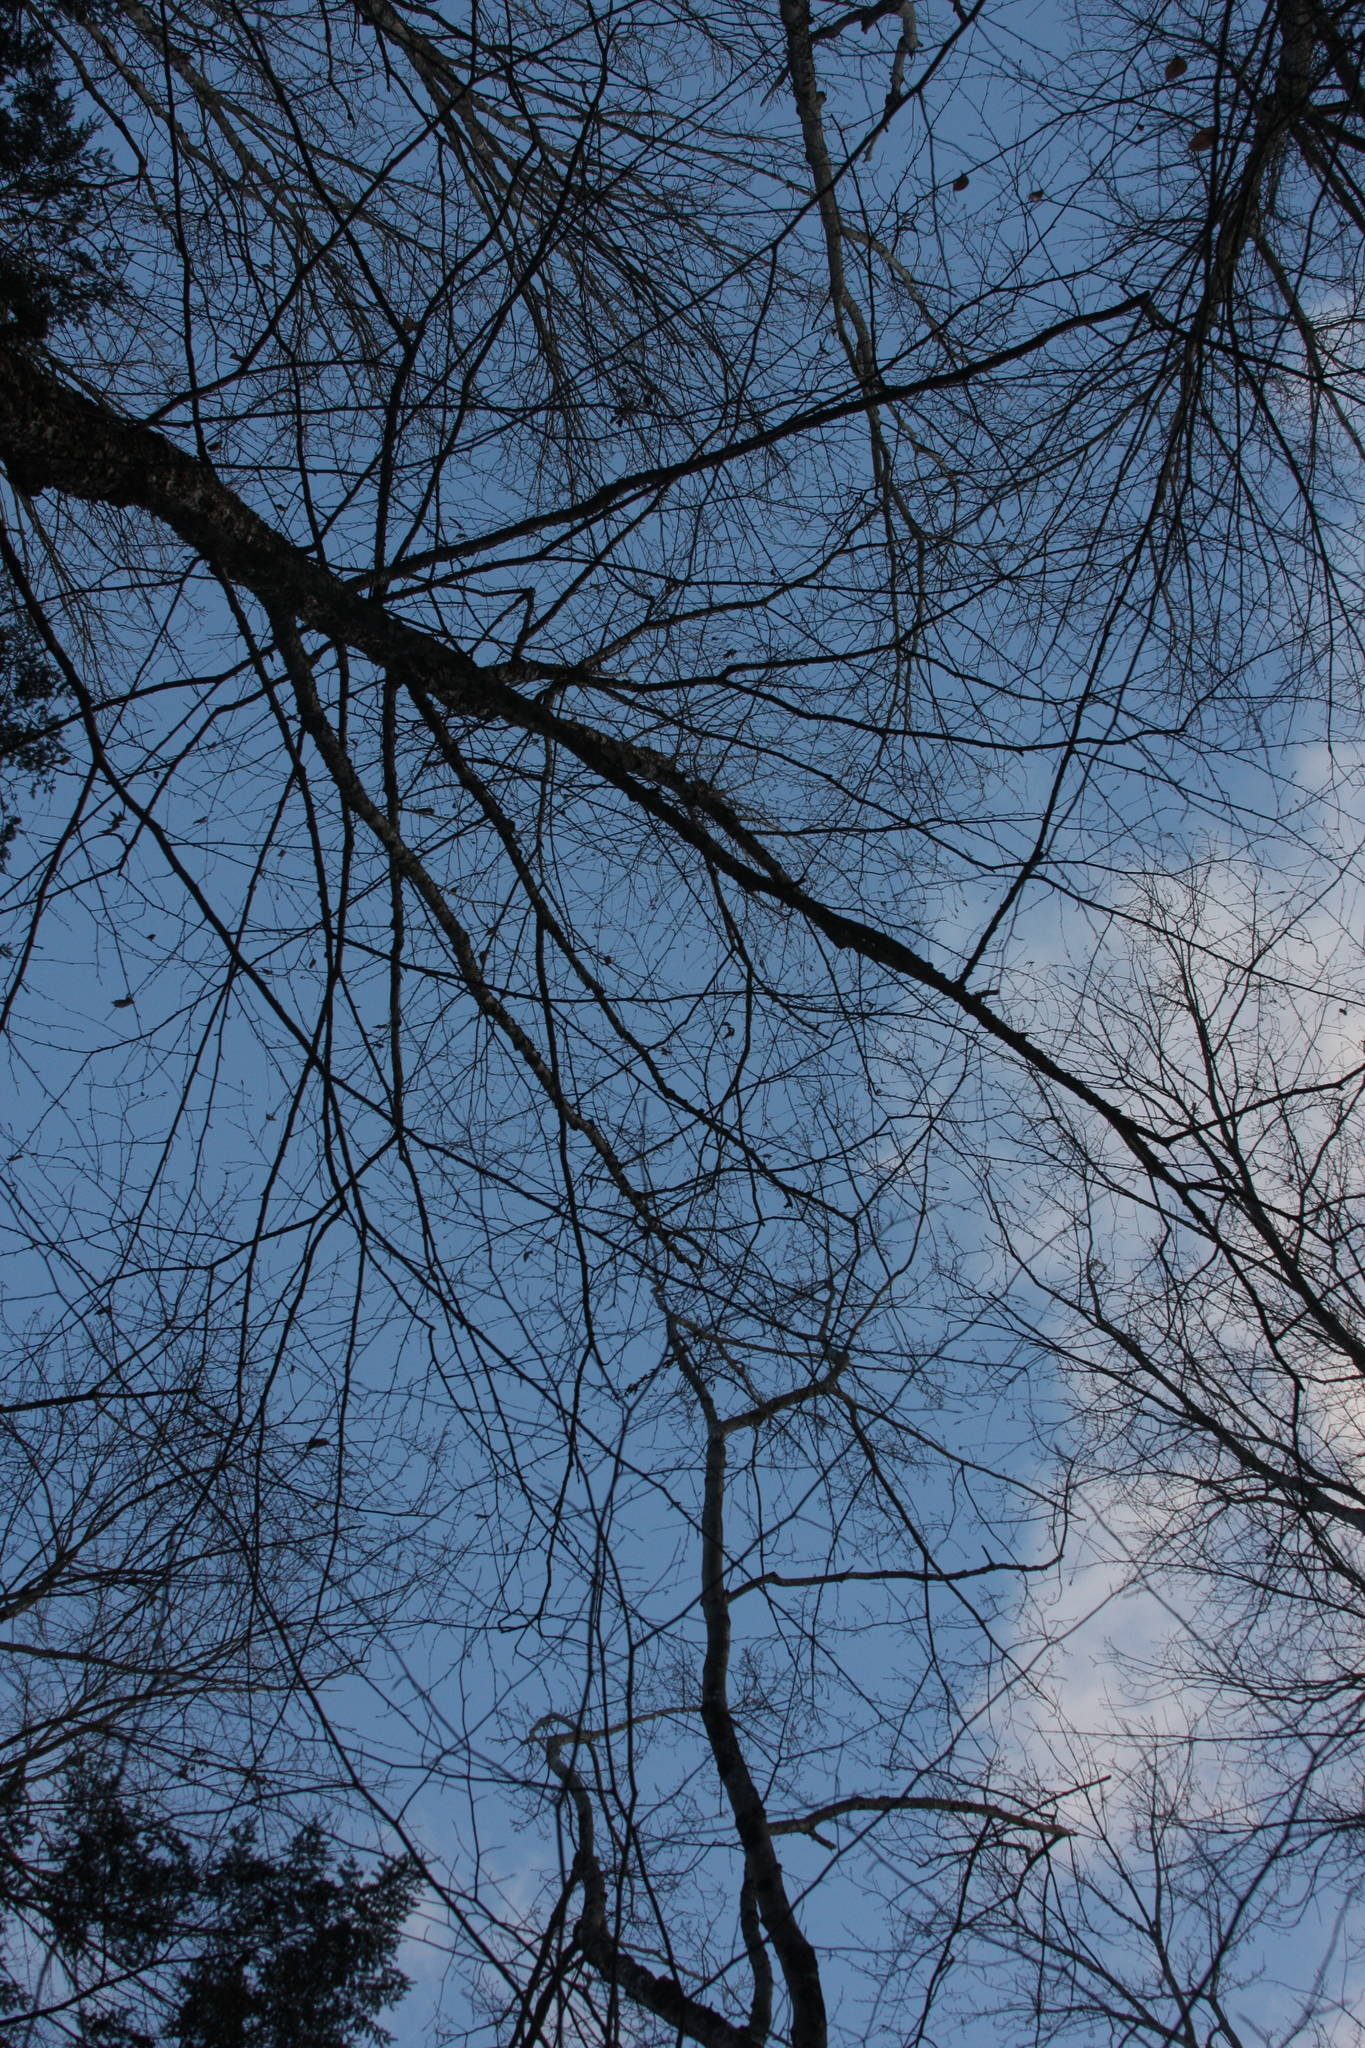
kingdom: Plantae
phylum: Tracheophyta
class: Magnoliopsida
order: Fagales
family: Betulaceae
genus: Betula
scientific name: Betula alleghaniensis
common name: Yellow birch
